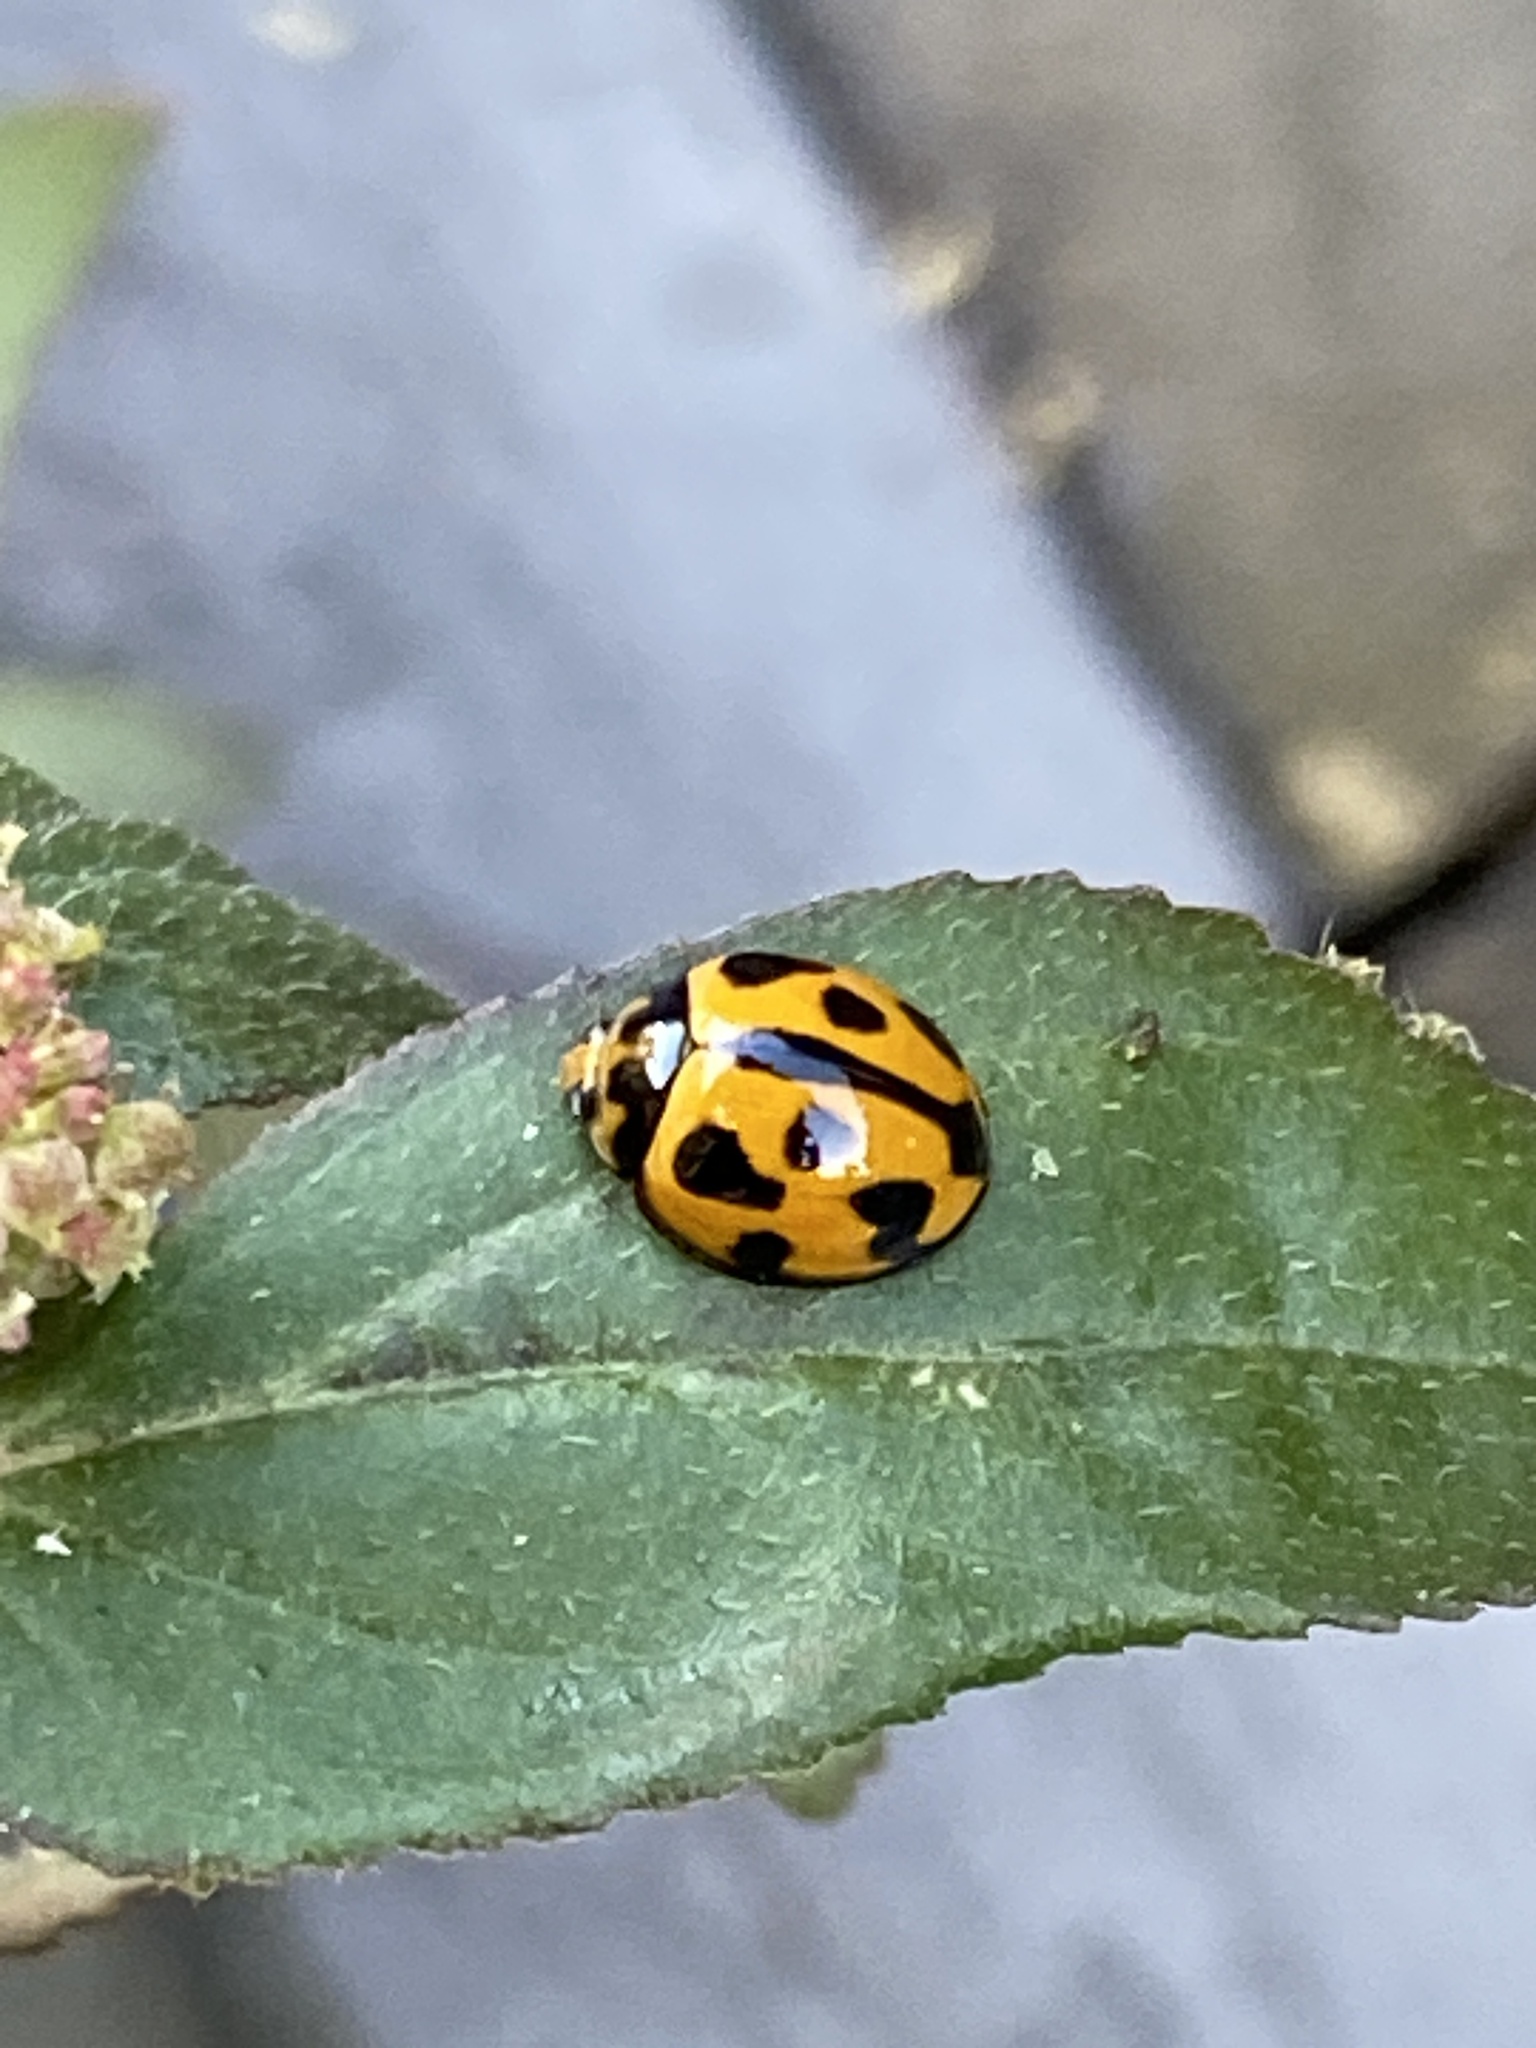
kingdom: Animalia
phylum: Arthropoda
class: Insecta
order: Coleoptera
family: Coccinellidae
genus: Coelophora
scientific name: Coelophora inaequalis
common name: Common australian lady beetle
